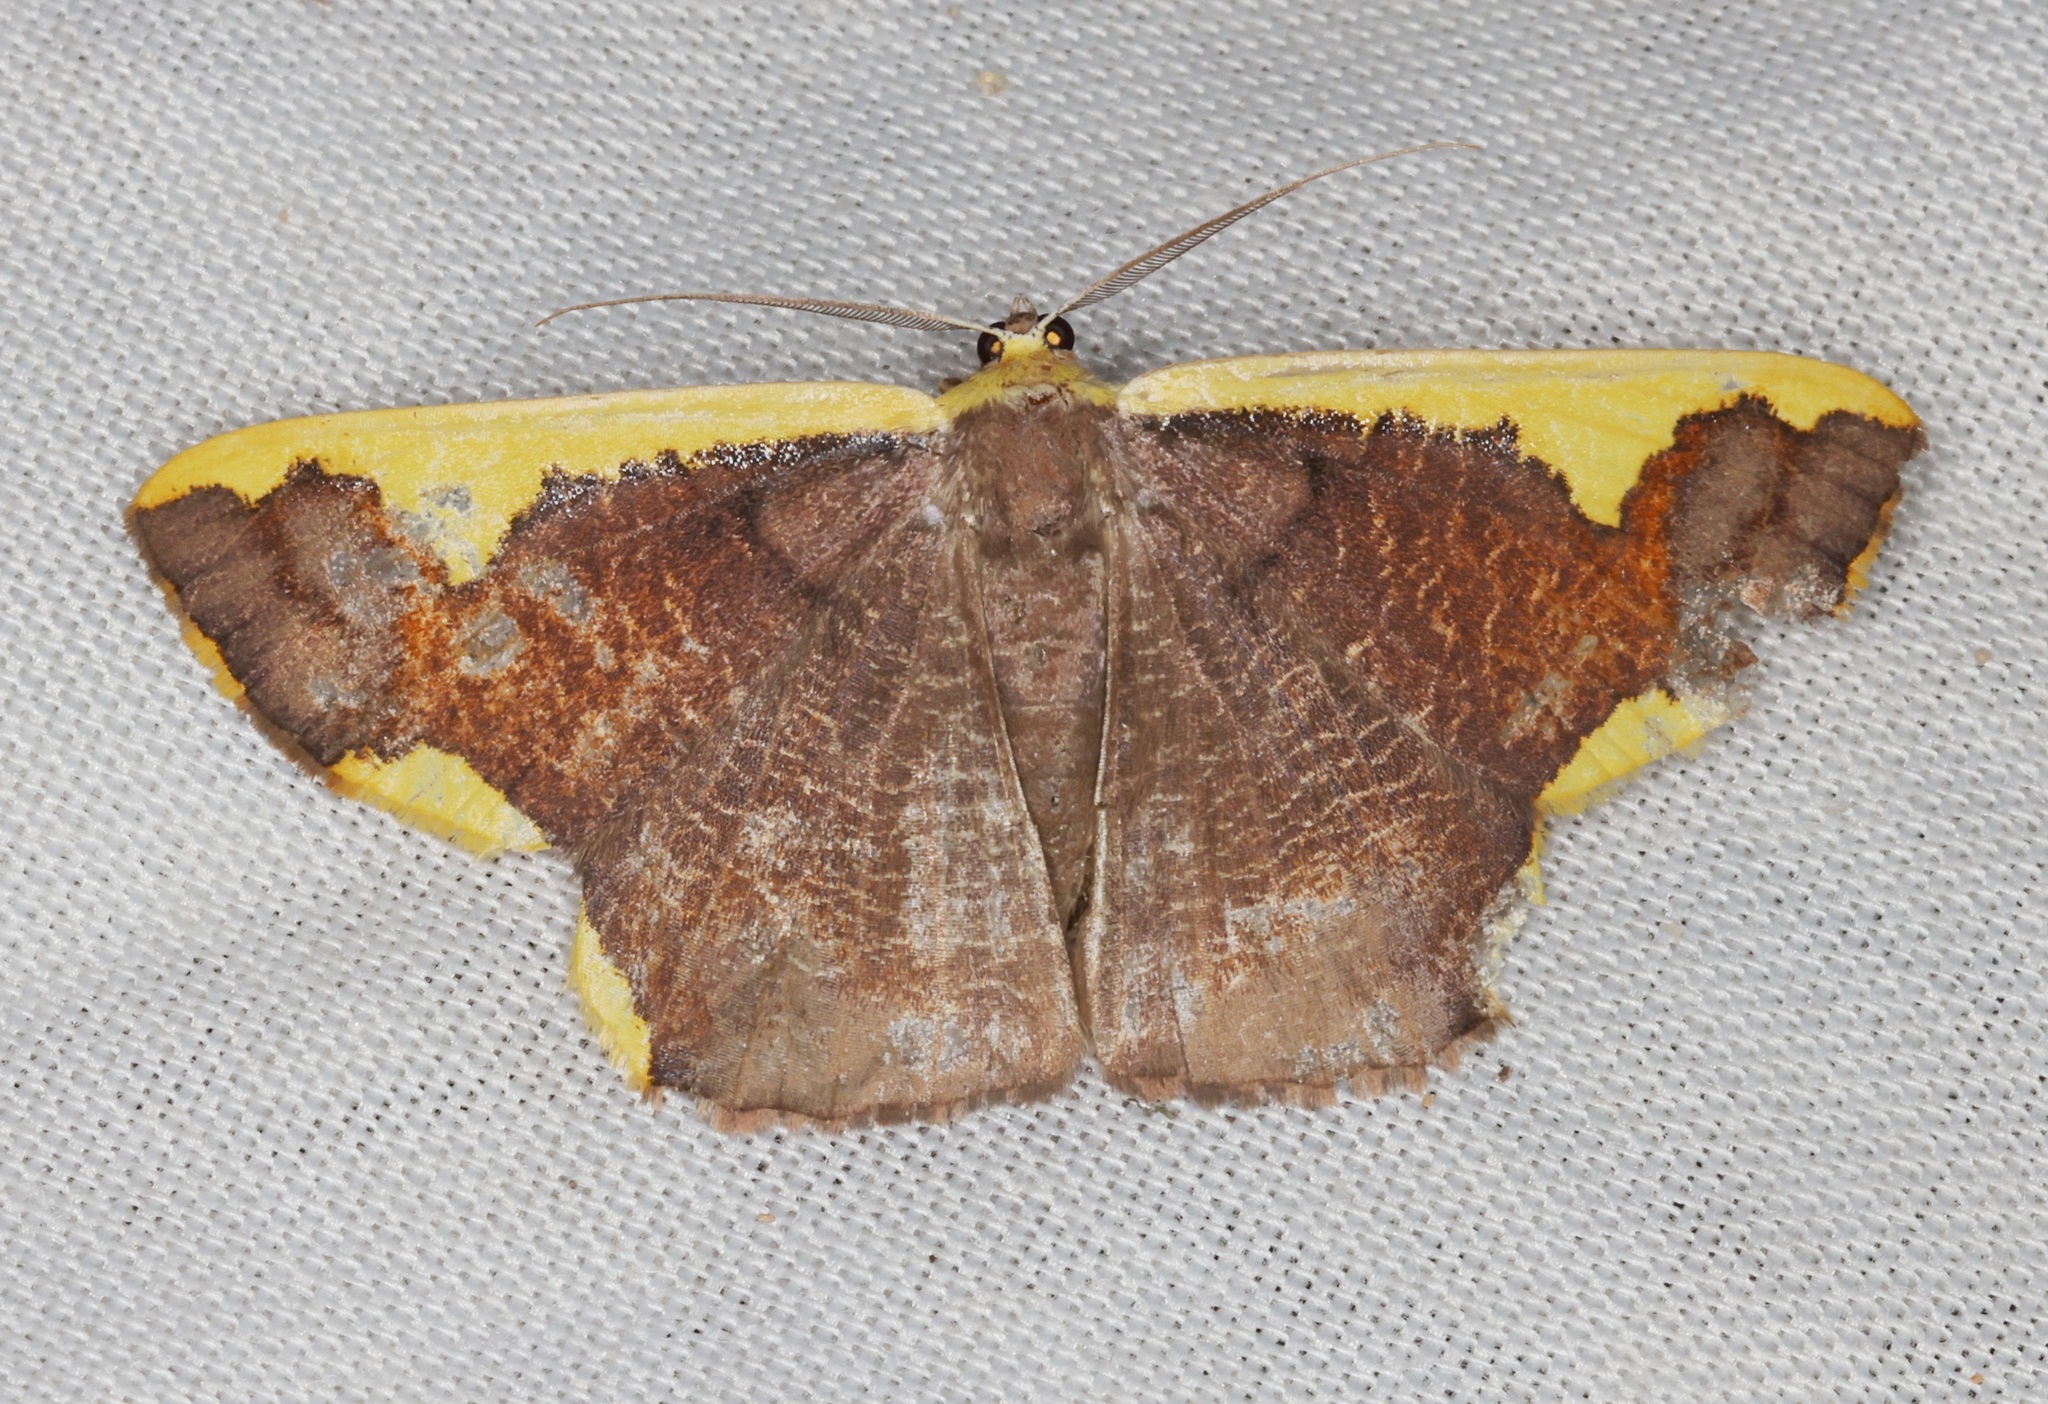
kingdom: Animalia
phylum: Arthropoda
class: Insecta
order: Lepidoptera
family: Geometridae
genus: Plutodes
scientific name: Plutodes costatus
